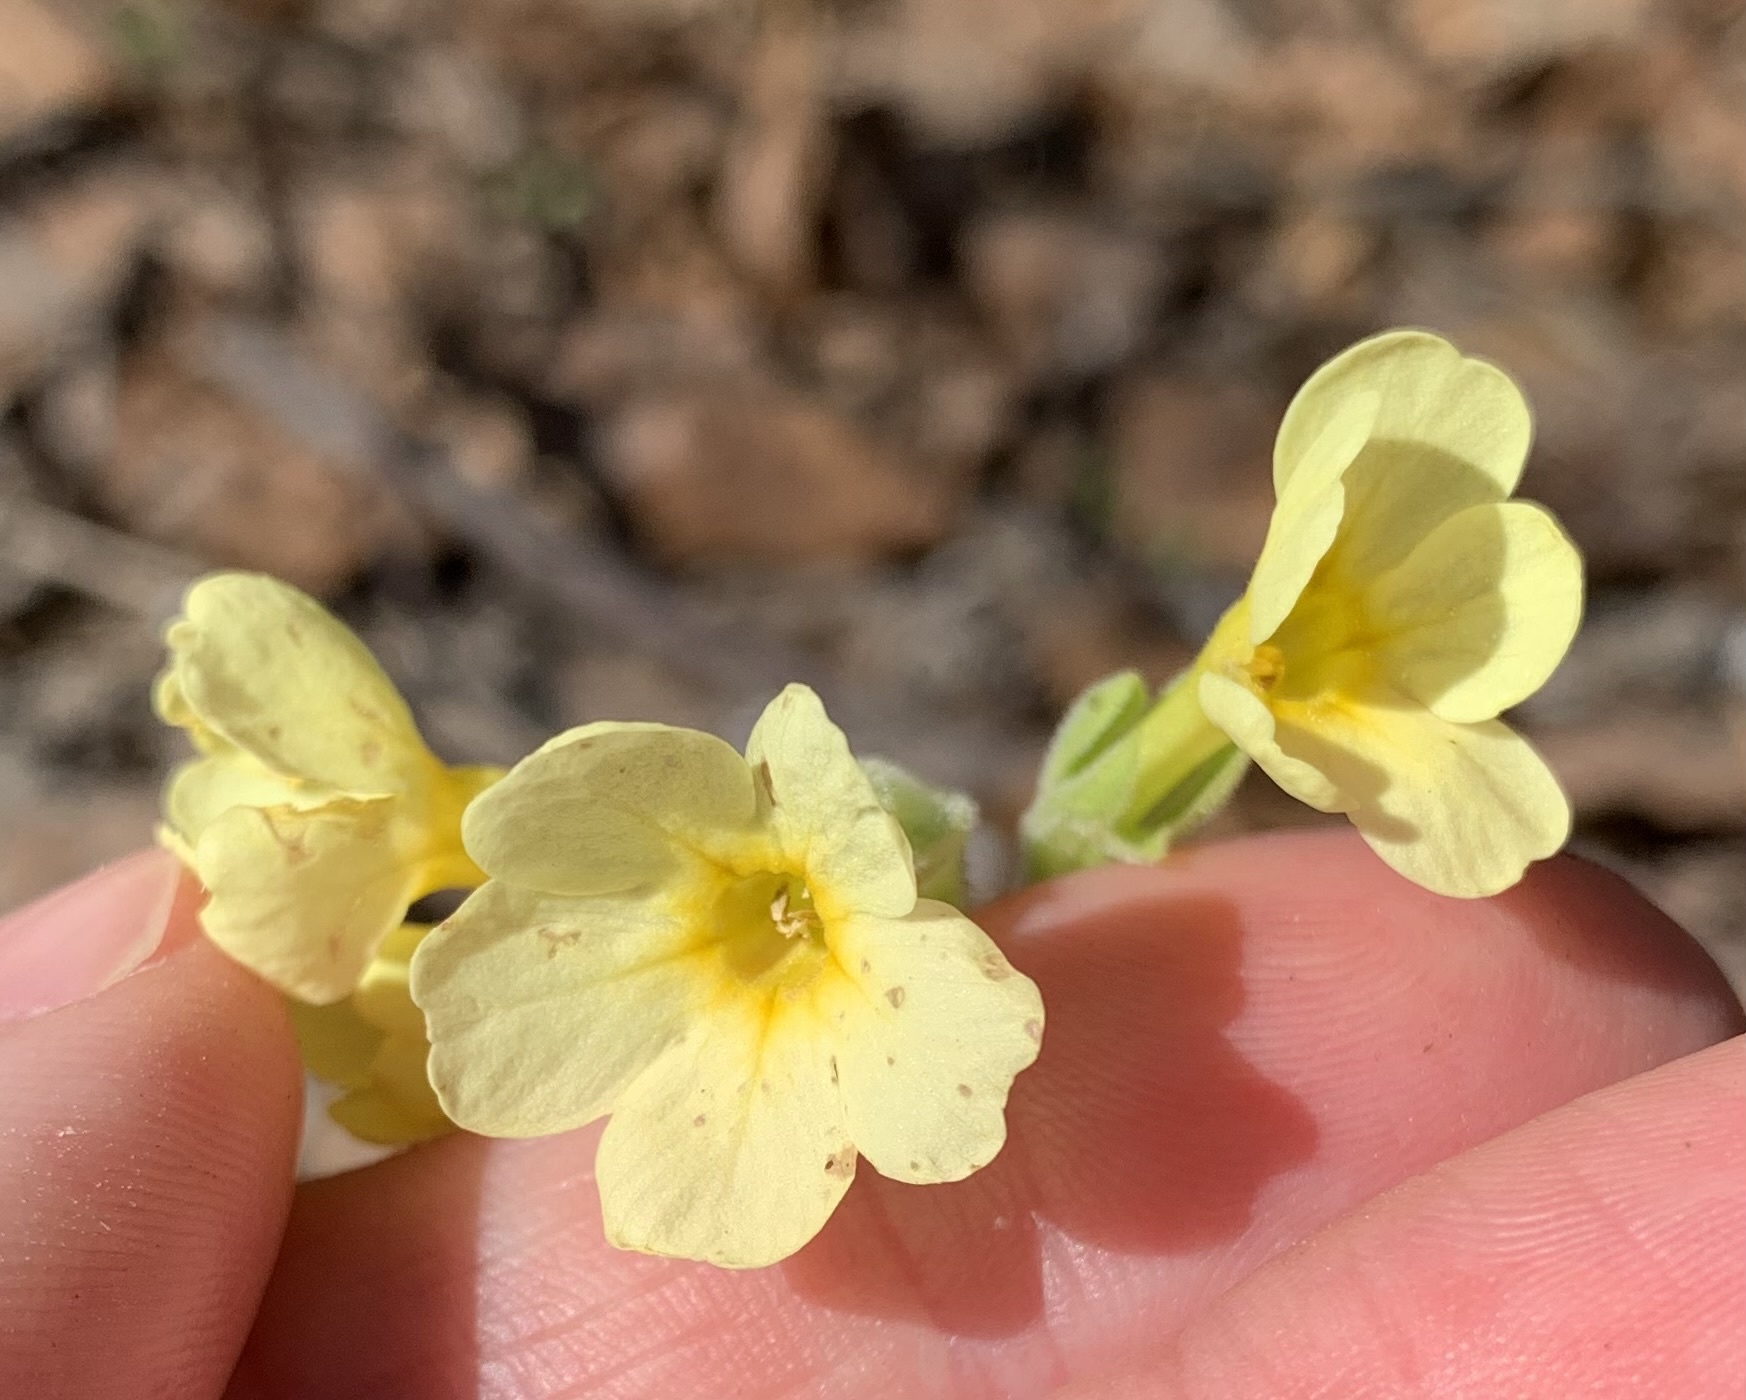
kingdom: Plantae
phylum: Tracheophyta
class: Magnoliopsida
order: Ericales
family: Primulaceae
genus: Primula
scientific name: Primula elatior
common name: Oxlip
